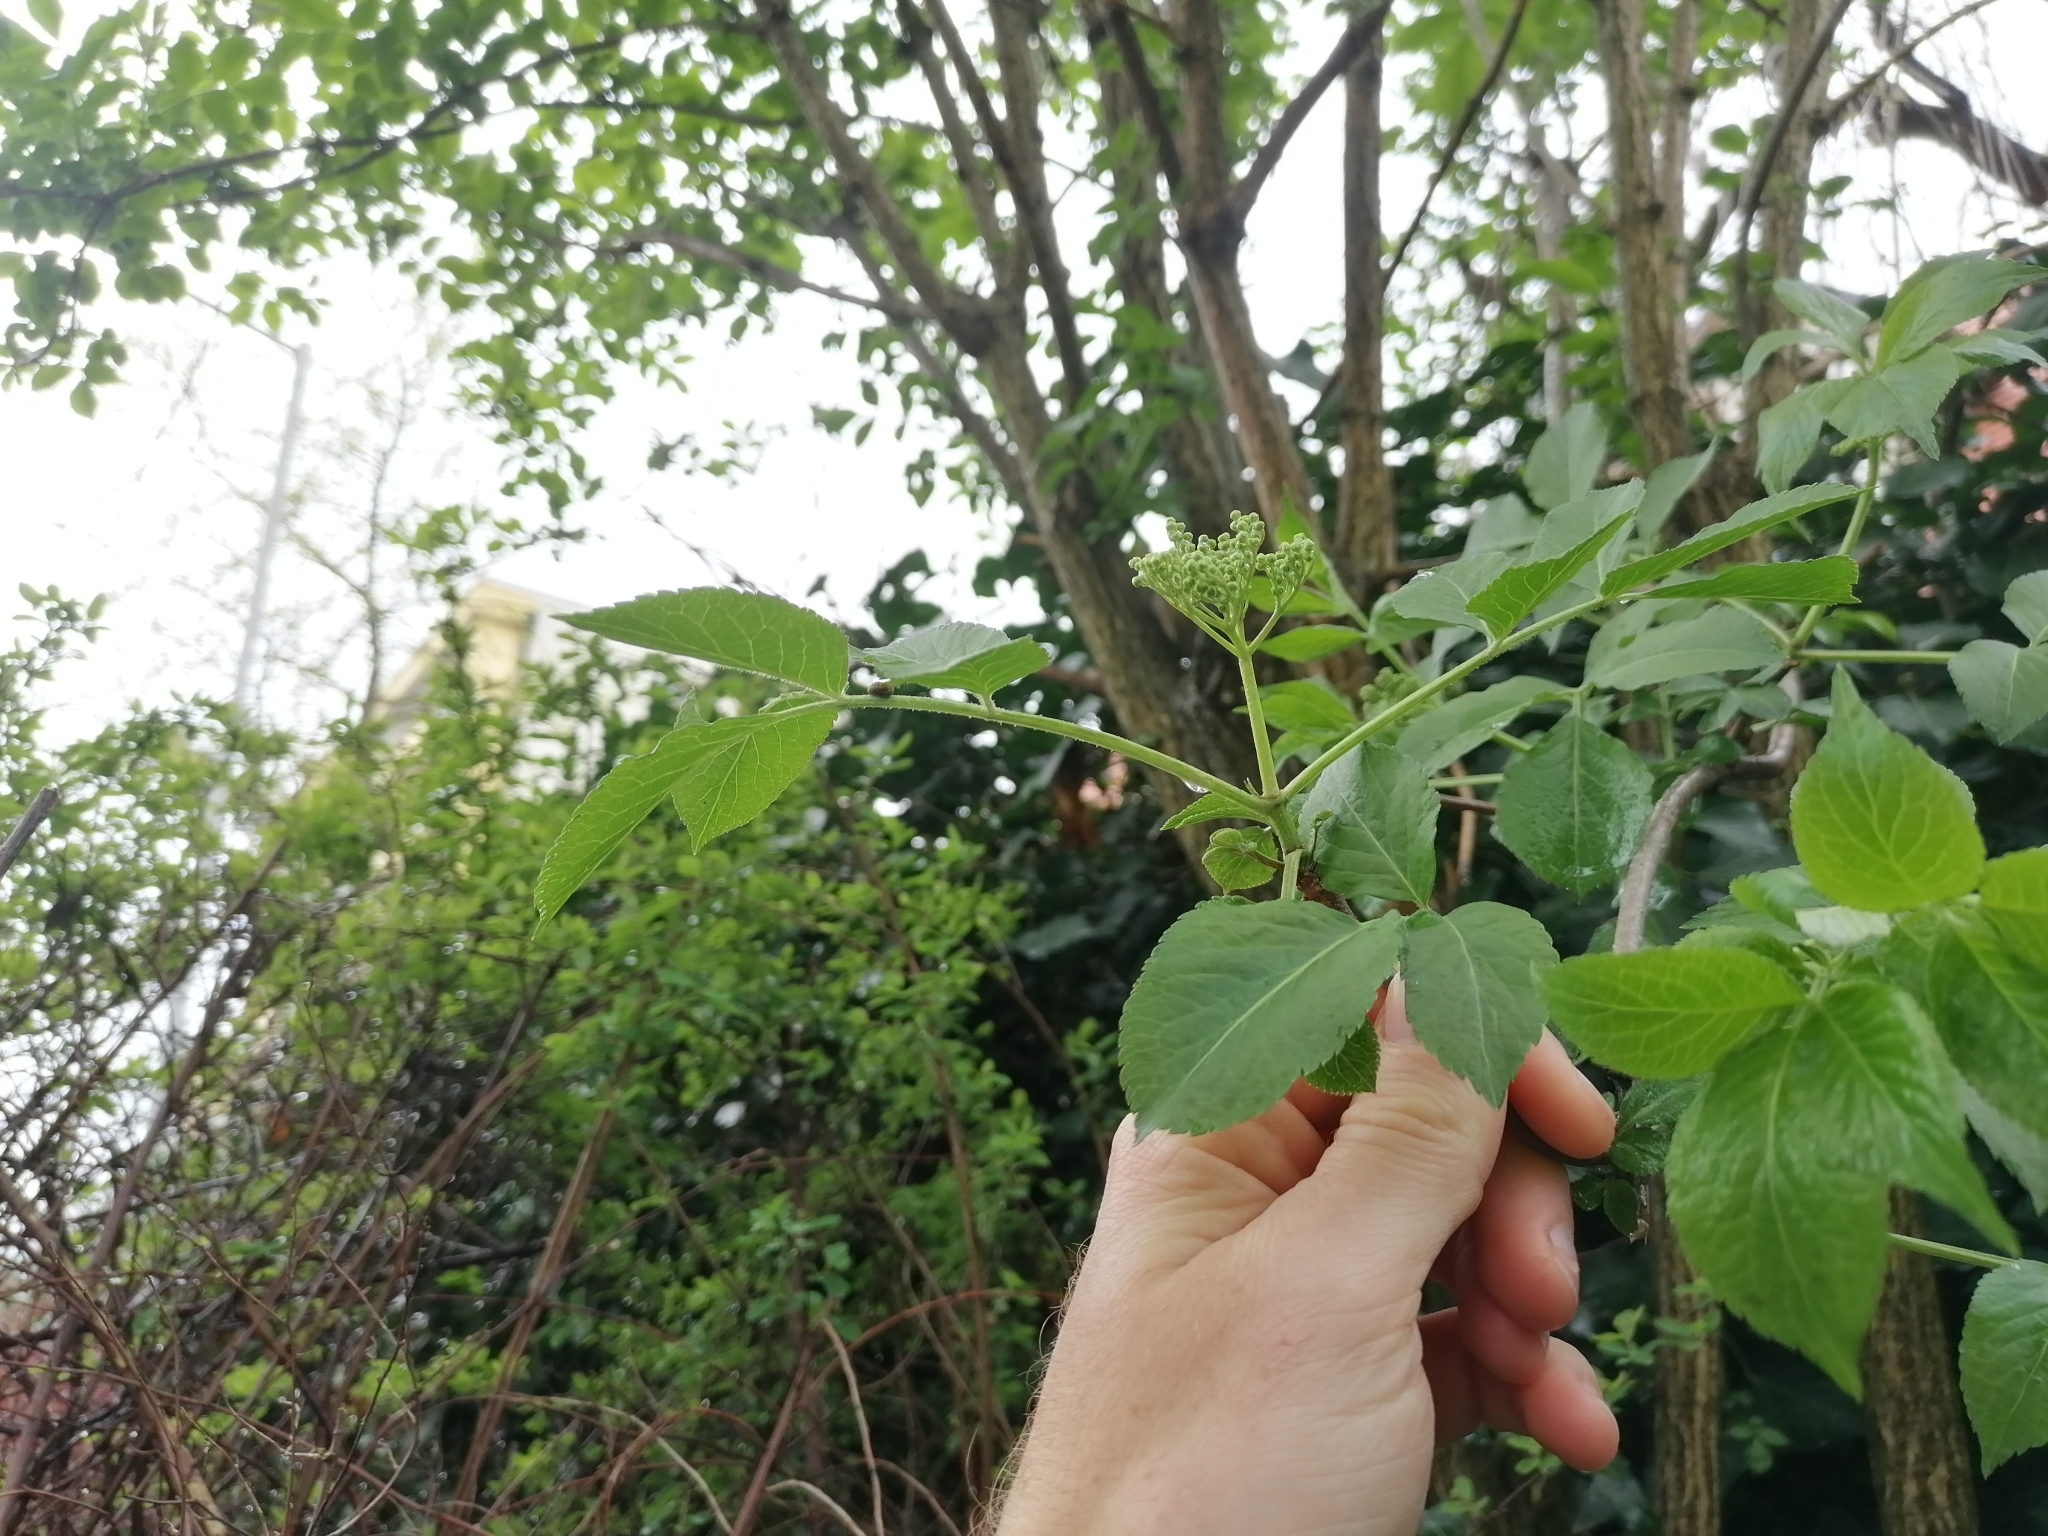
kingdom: Plantae
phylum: Tracheophyta
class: Magnoliopsida
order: Dipsacales
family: Viburnaceae
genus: Sambucus
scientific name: Sambucus nigra
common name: Elder
